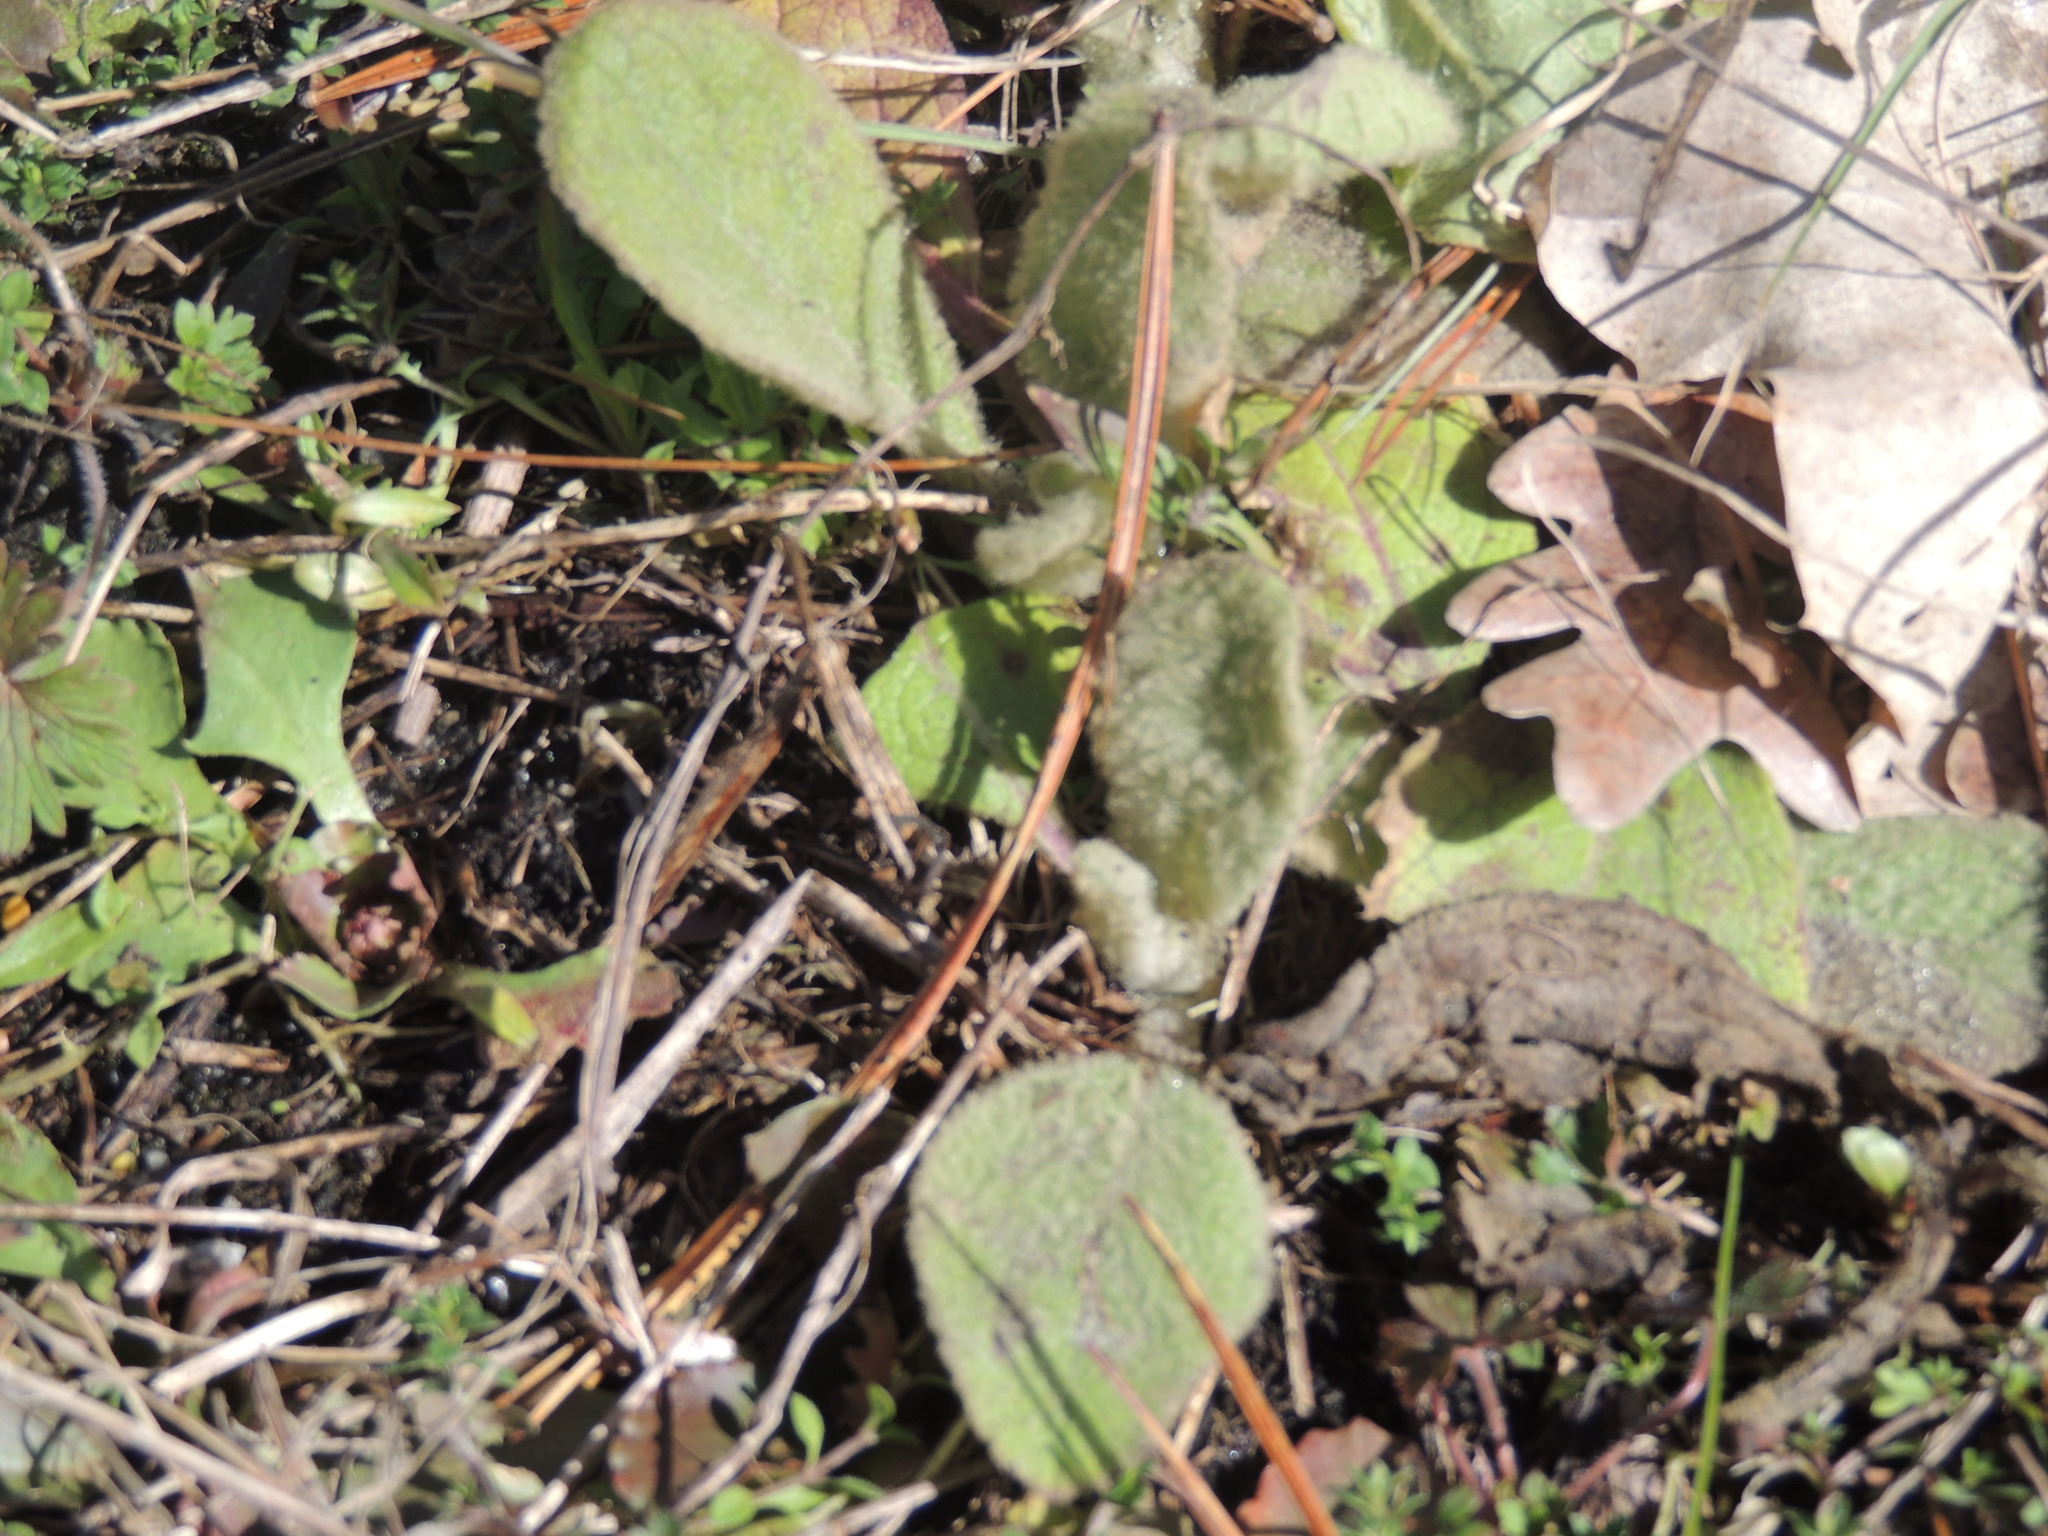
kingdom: Plantae
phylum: Tracheophyta
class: Magnoliopsida
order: Lamiales
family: Scrophulariaceae
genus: Verbascum
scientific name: Verbascum thapsus
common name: Common mullein
